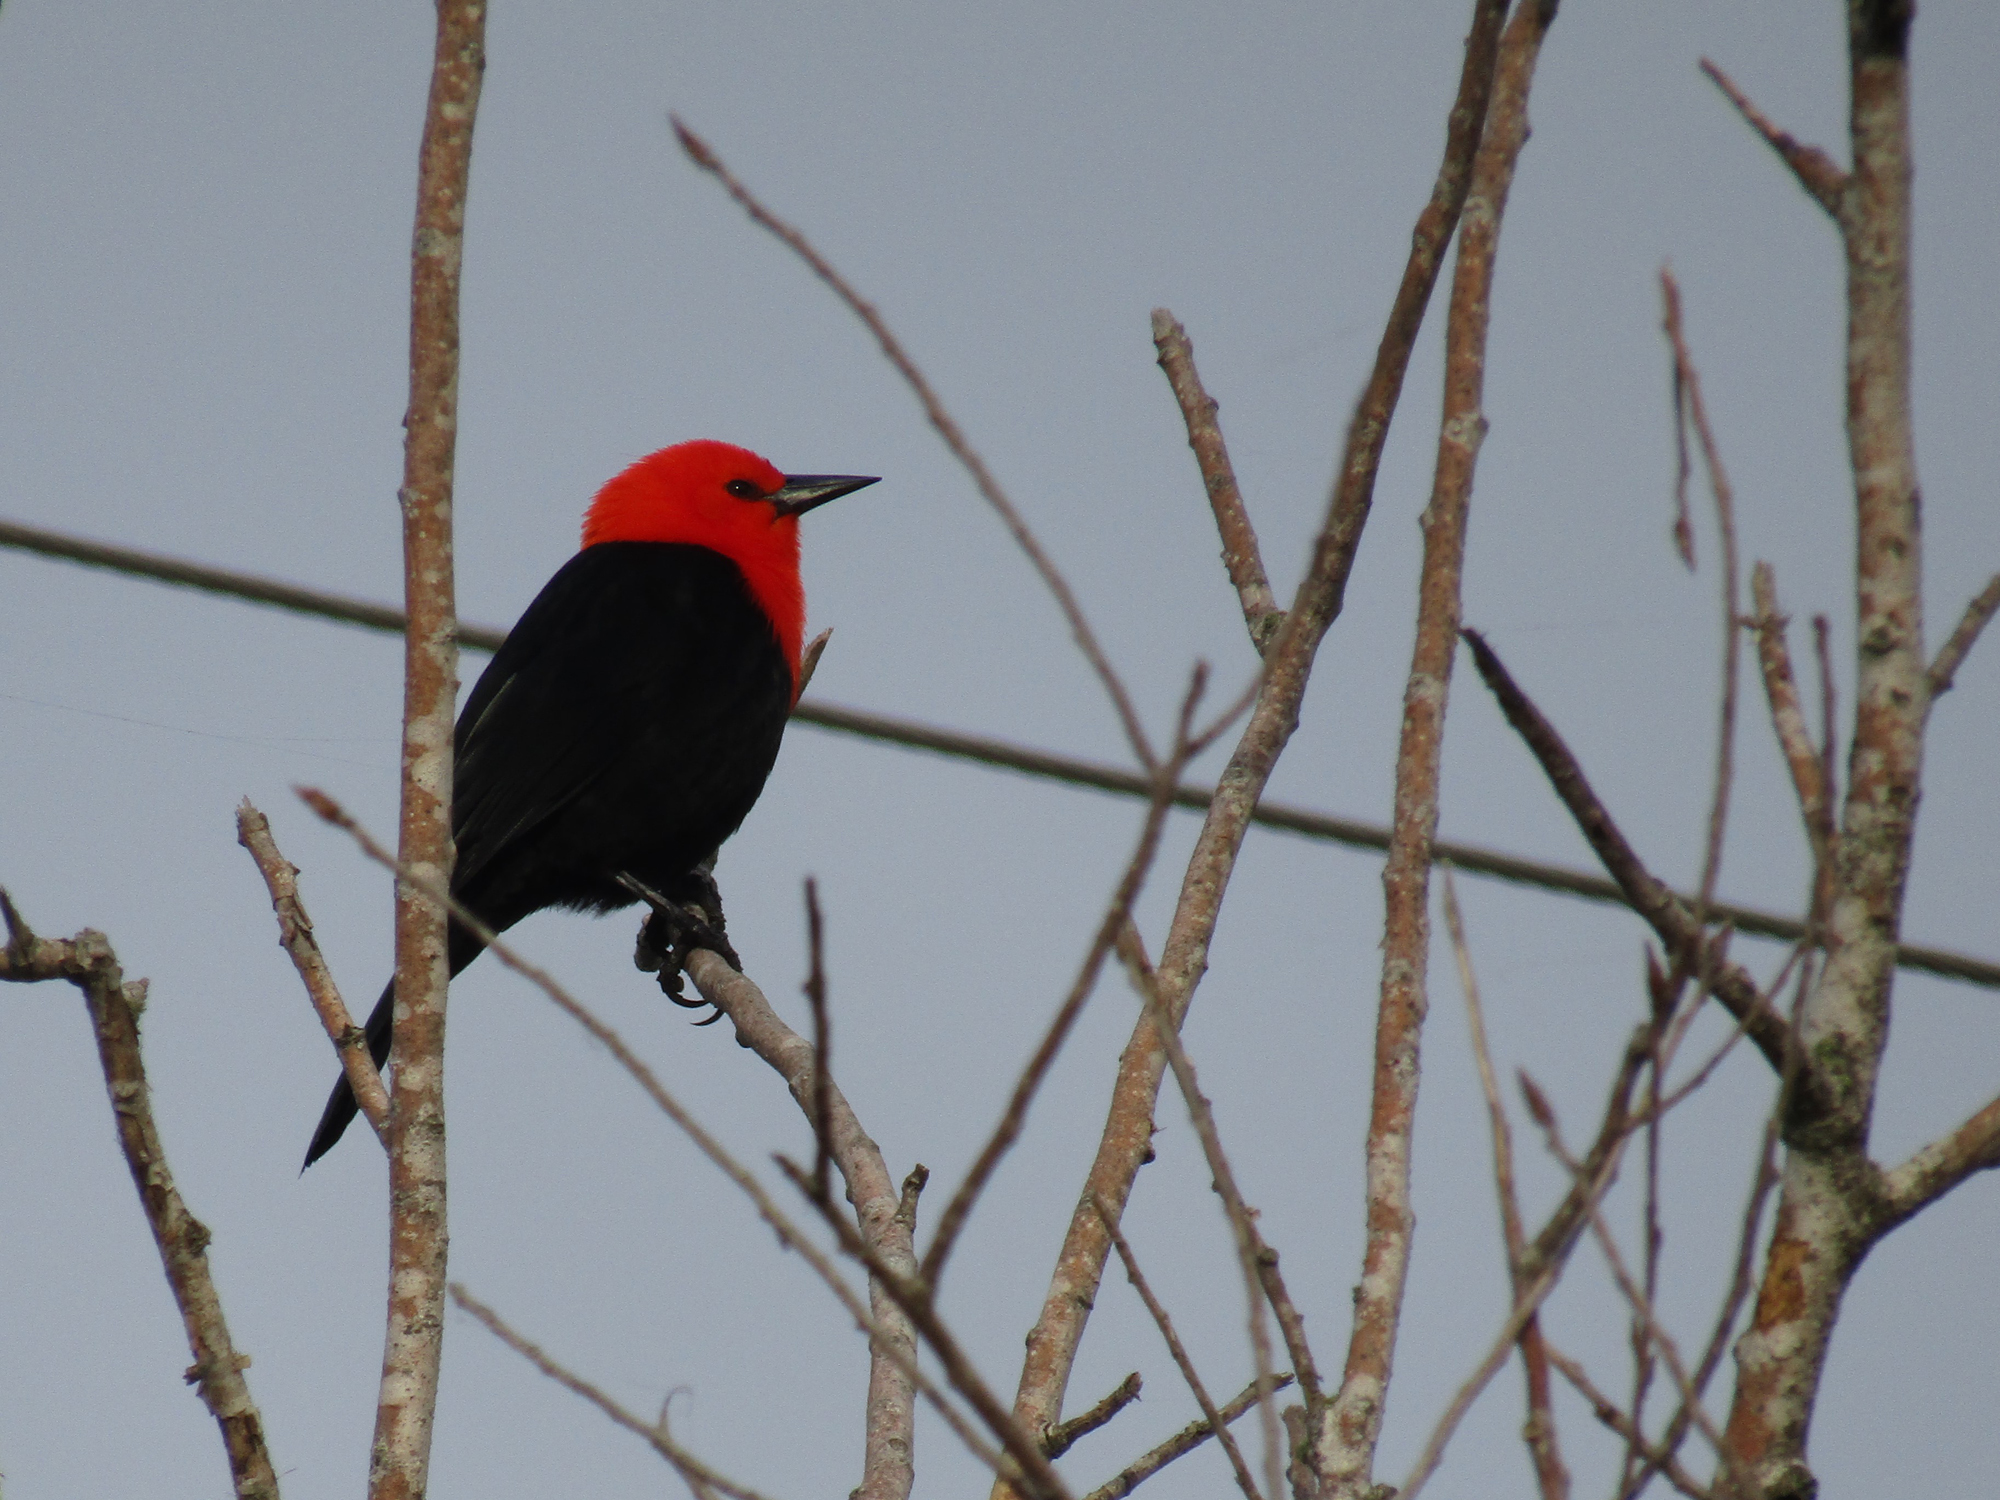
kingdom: Animalia
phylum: Chordata
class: Aves
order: Passeriformes
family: Icteridae
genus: Amblyramphus
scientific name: Amblyramphus holosericeus
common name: Scarlet-headed blackbird
